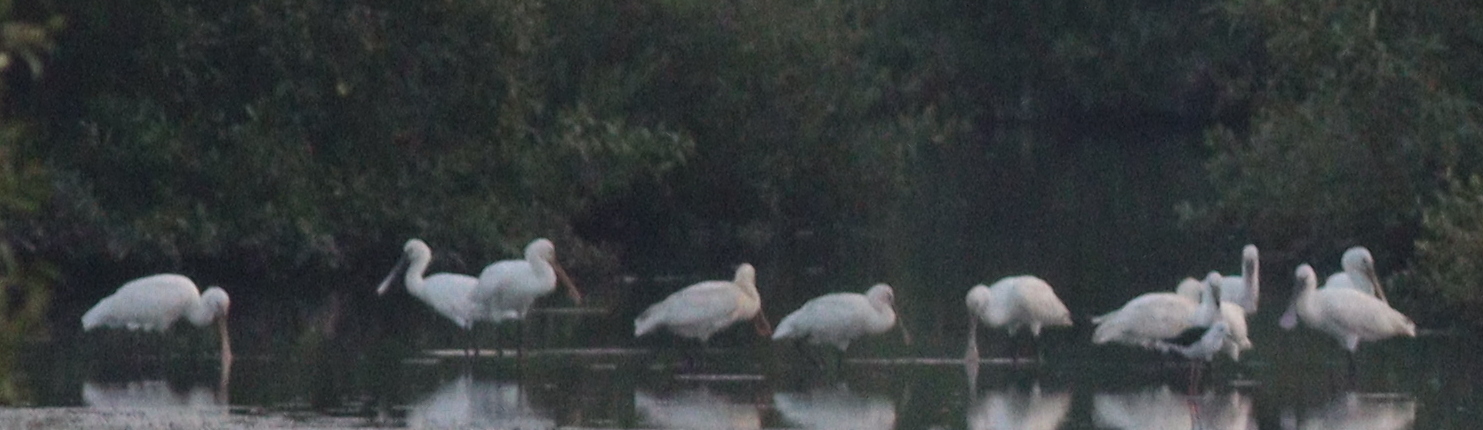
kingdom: Animalia
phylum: Chordata
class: Aves
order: Pelecaniformes
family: Threskiornithidae
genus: Platalea
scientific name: Platalea leucorodia
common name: Eurasian spoonbill
